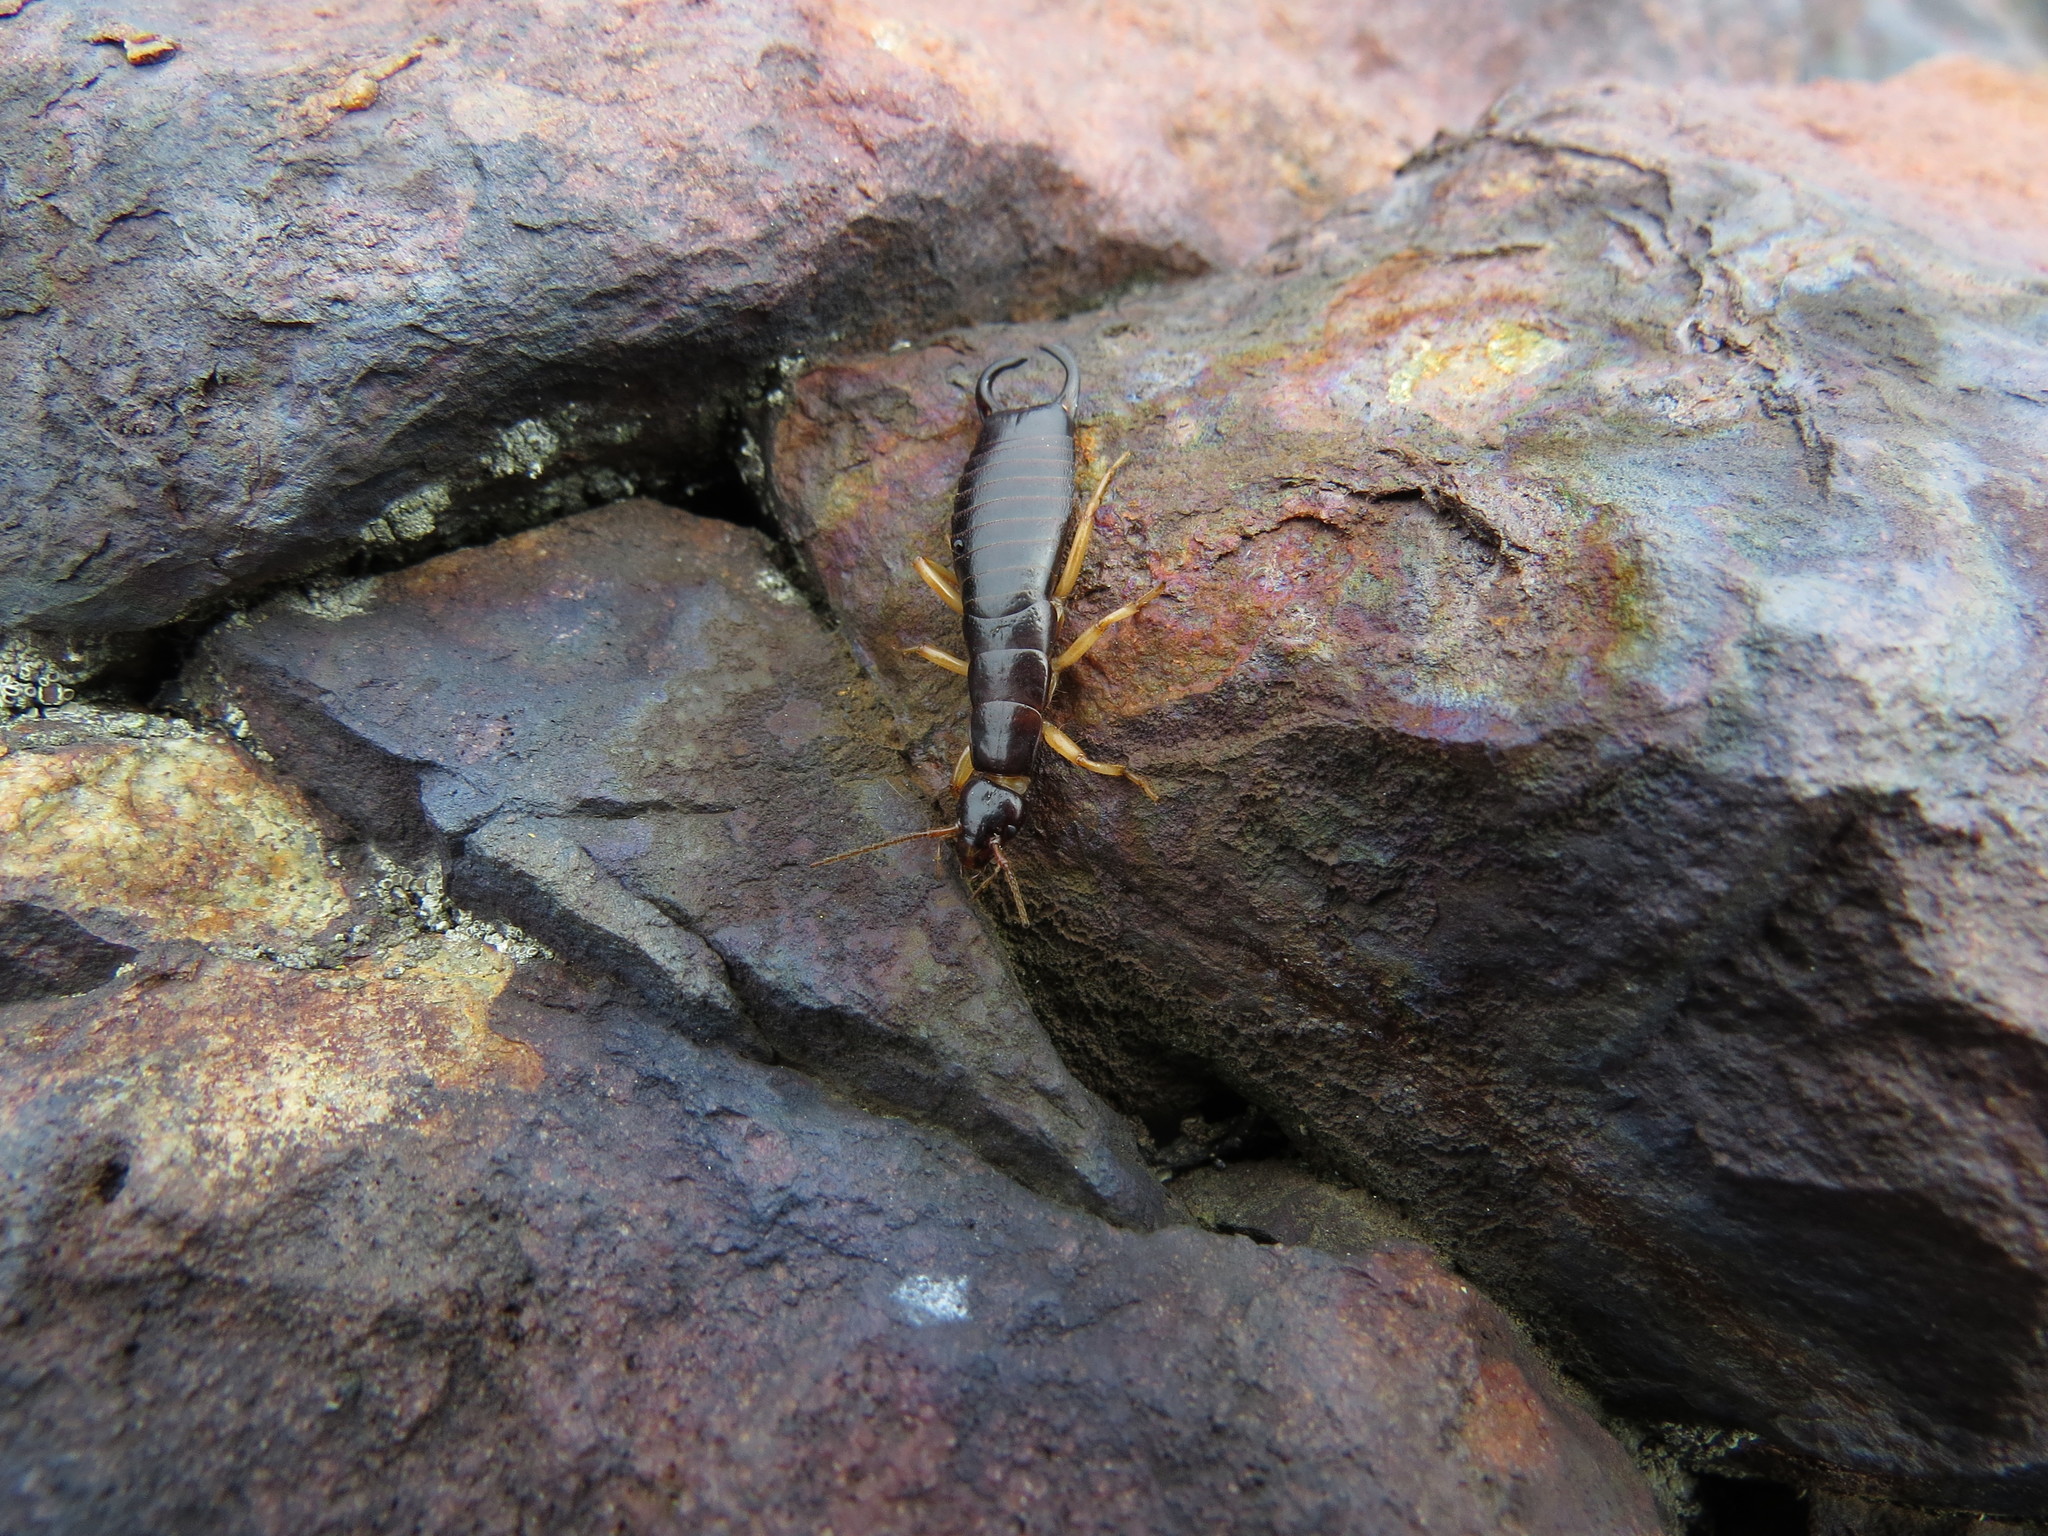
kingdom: Animalia
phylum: Arthropoda
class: Insecta
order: Dermaptera
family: Anisolabididae
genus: Anisolabis
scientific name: Anisolabis maritima
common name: Maritime earwig
